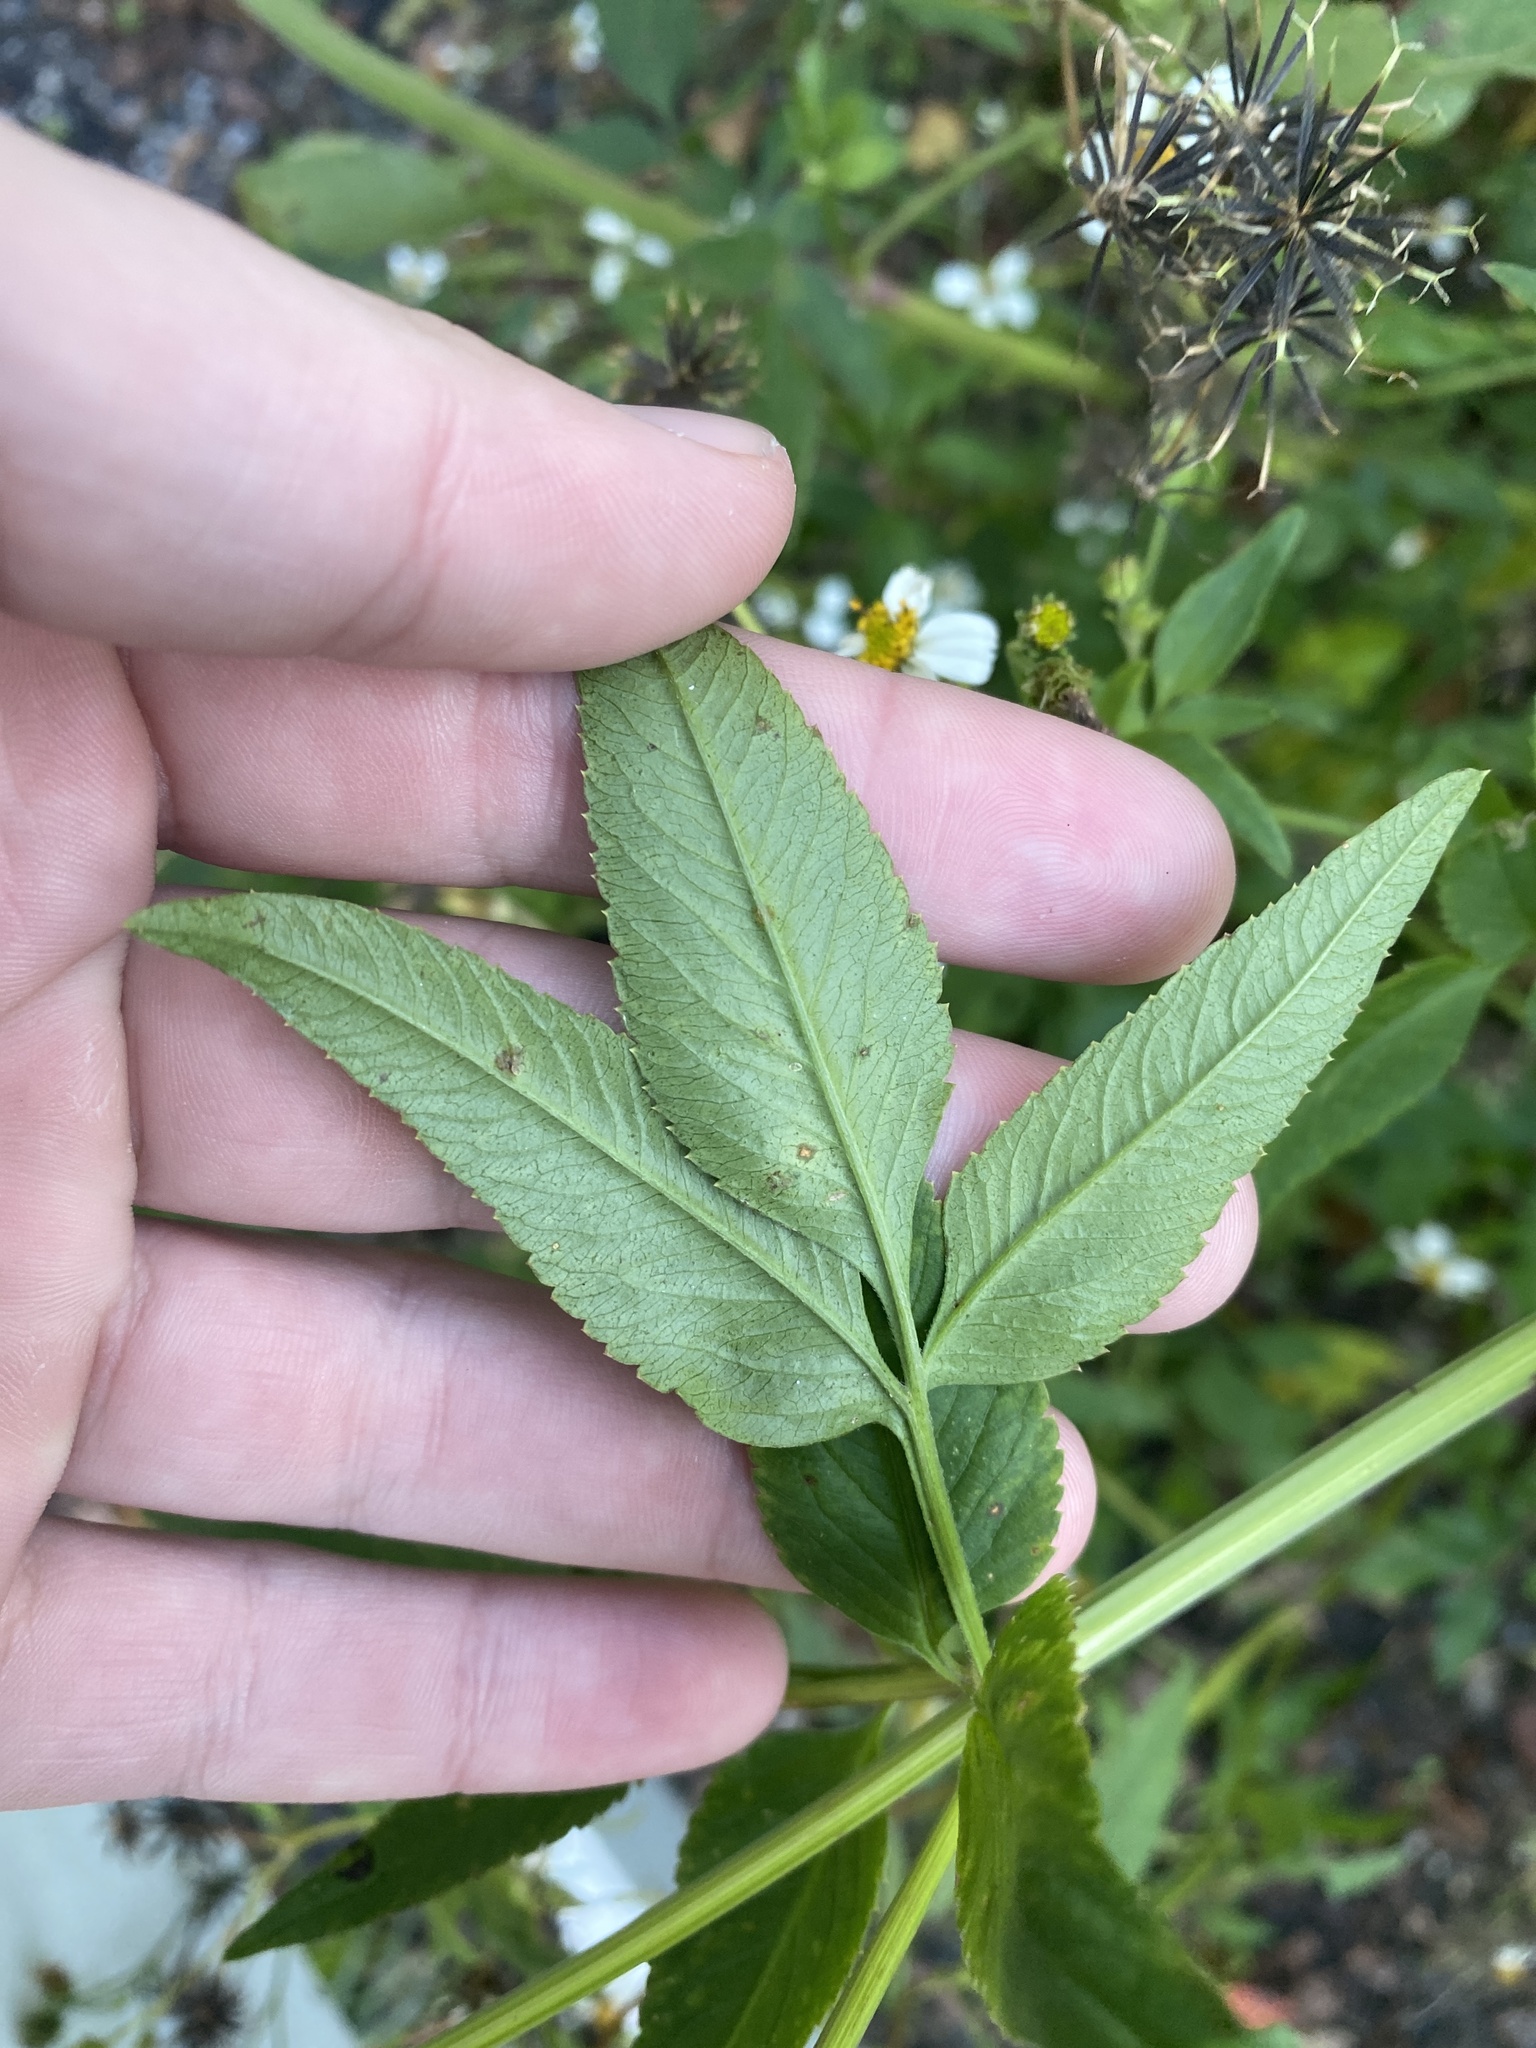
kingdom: Plantae
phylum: Tracheophyta
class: Magnoliopsida
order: Asterales
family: Asteraceae
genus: Bidens
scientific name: Bidens alba
